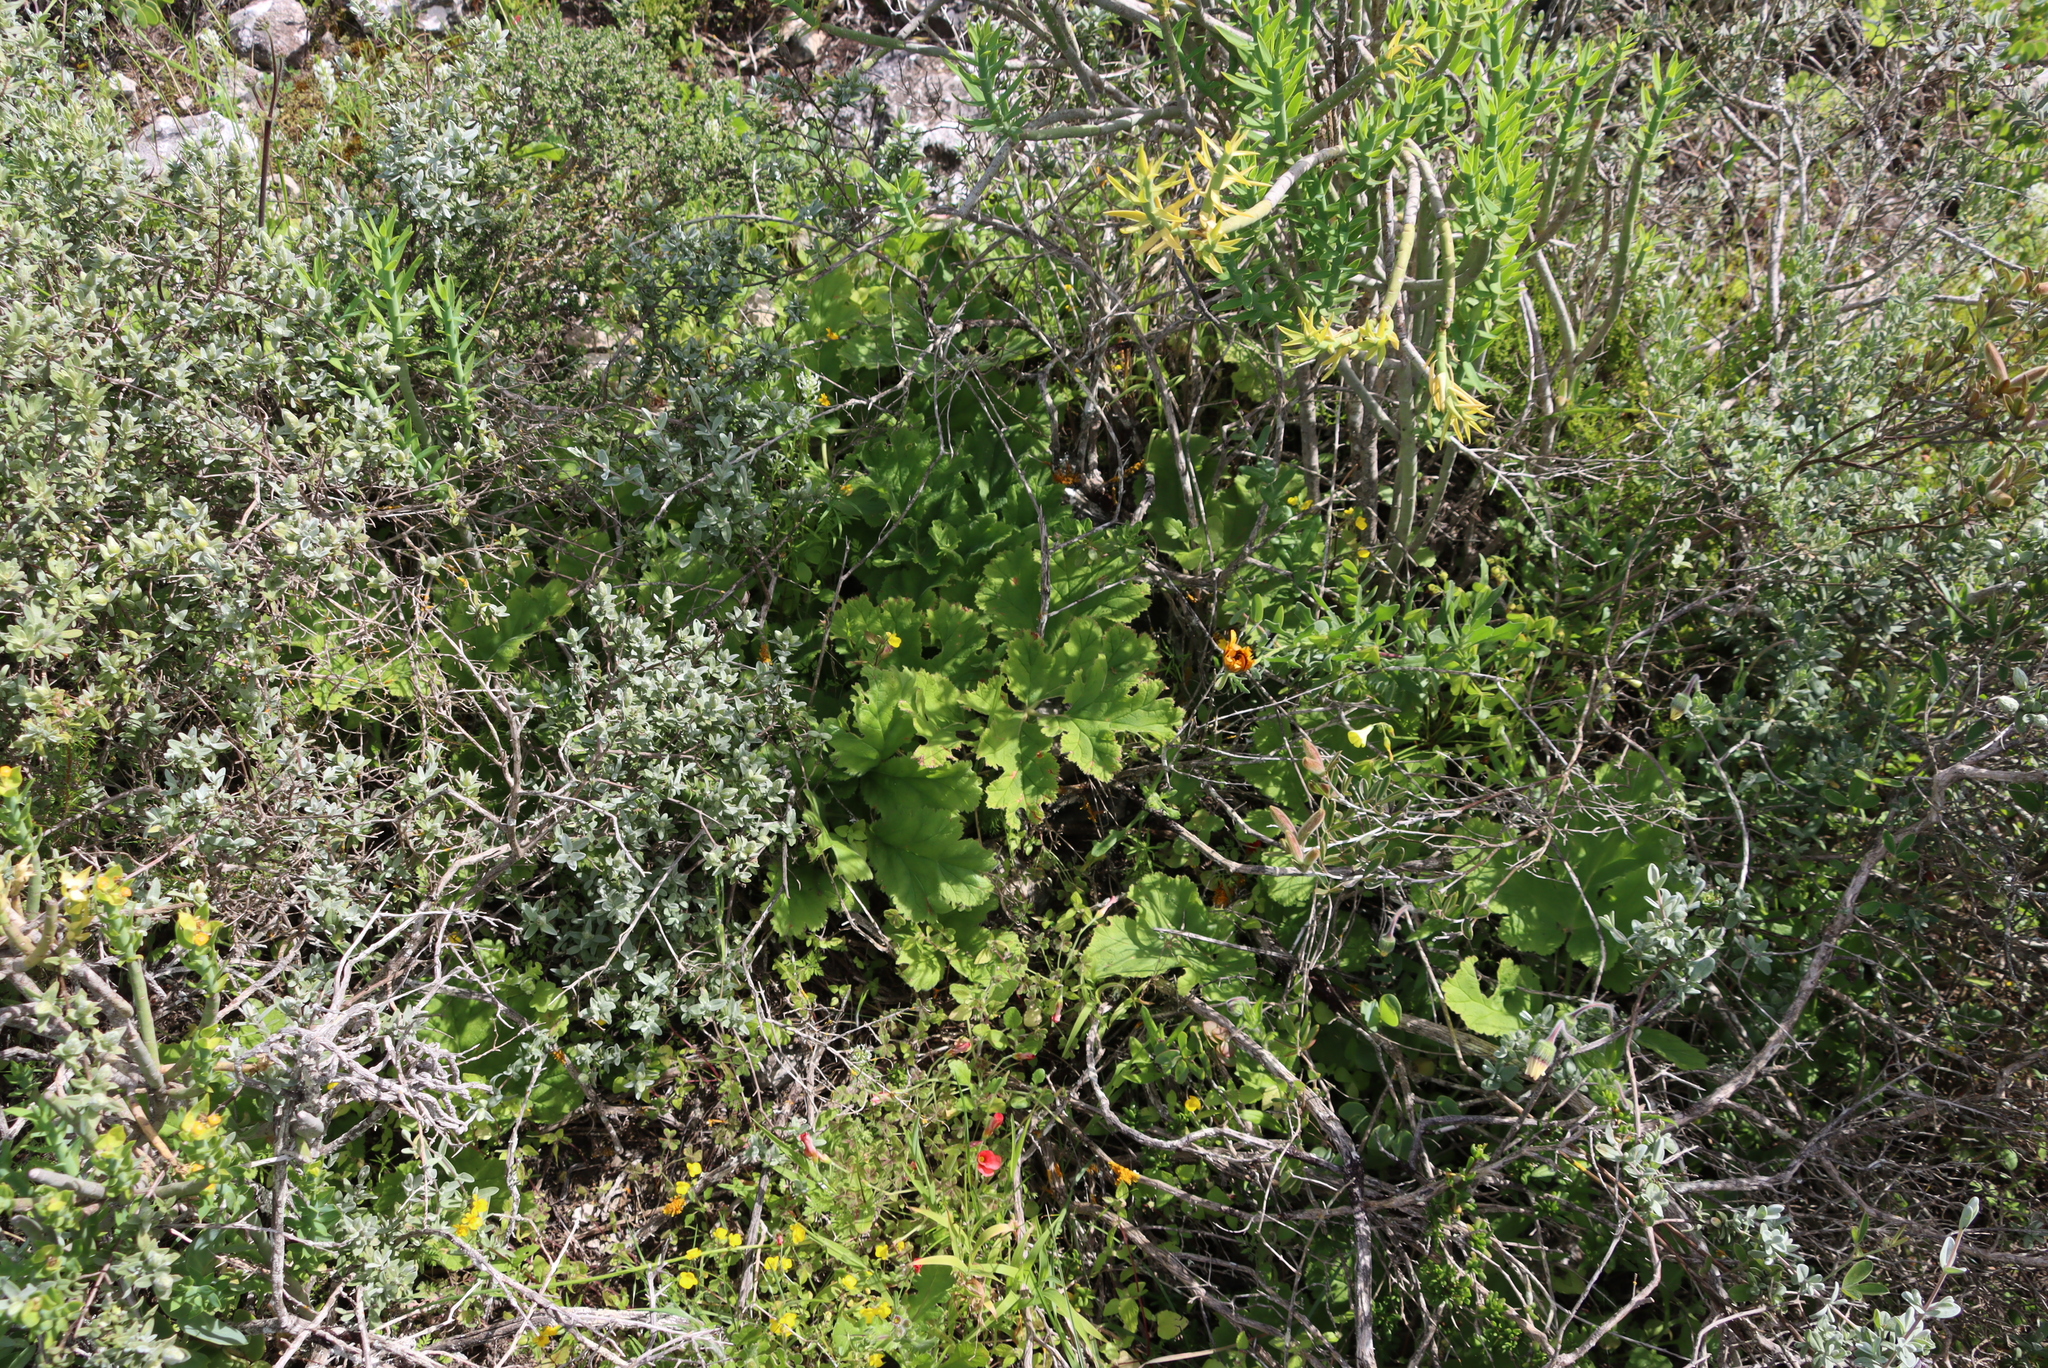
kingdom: Plantae
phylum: Tracheophyta
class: Magnoliopsida
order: Geraniales
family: Geraniaceae
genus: Pelargonium
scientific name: Pelargonium lobatum
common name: Vine-leaf pelargonium
